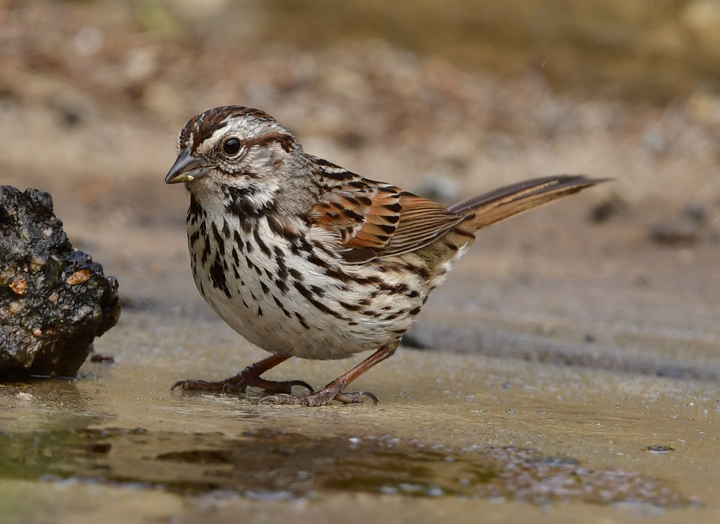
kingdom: Animalia
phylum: Chordata
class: Aves
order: Passeriformes
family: Passerellidae
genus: Melospiza
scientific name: Melospiza melodia
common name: Song sparrow
